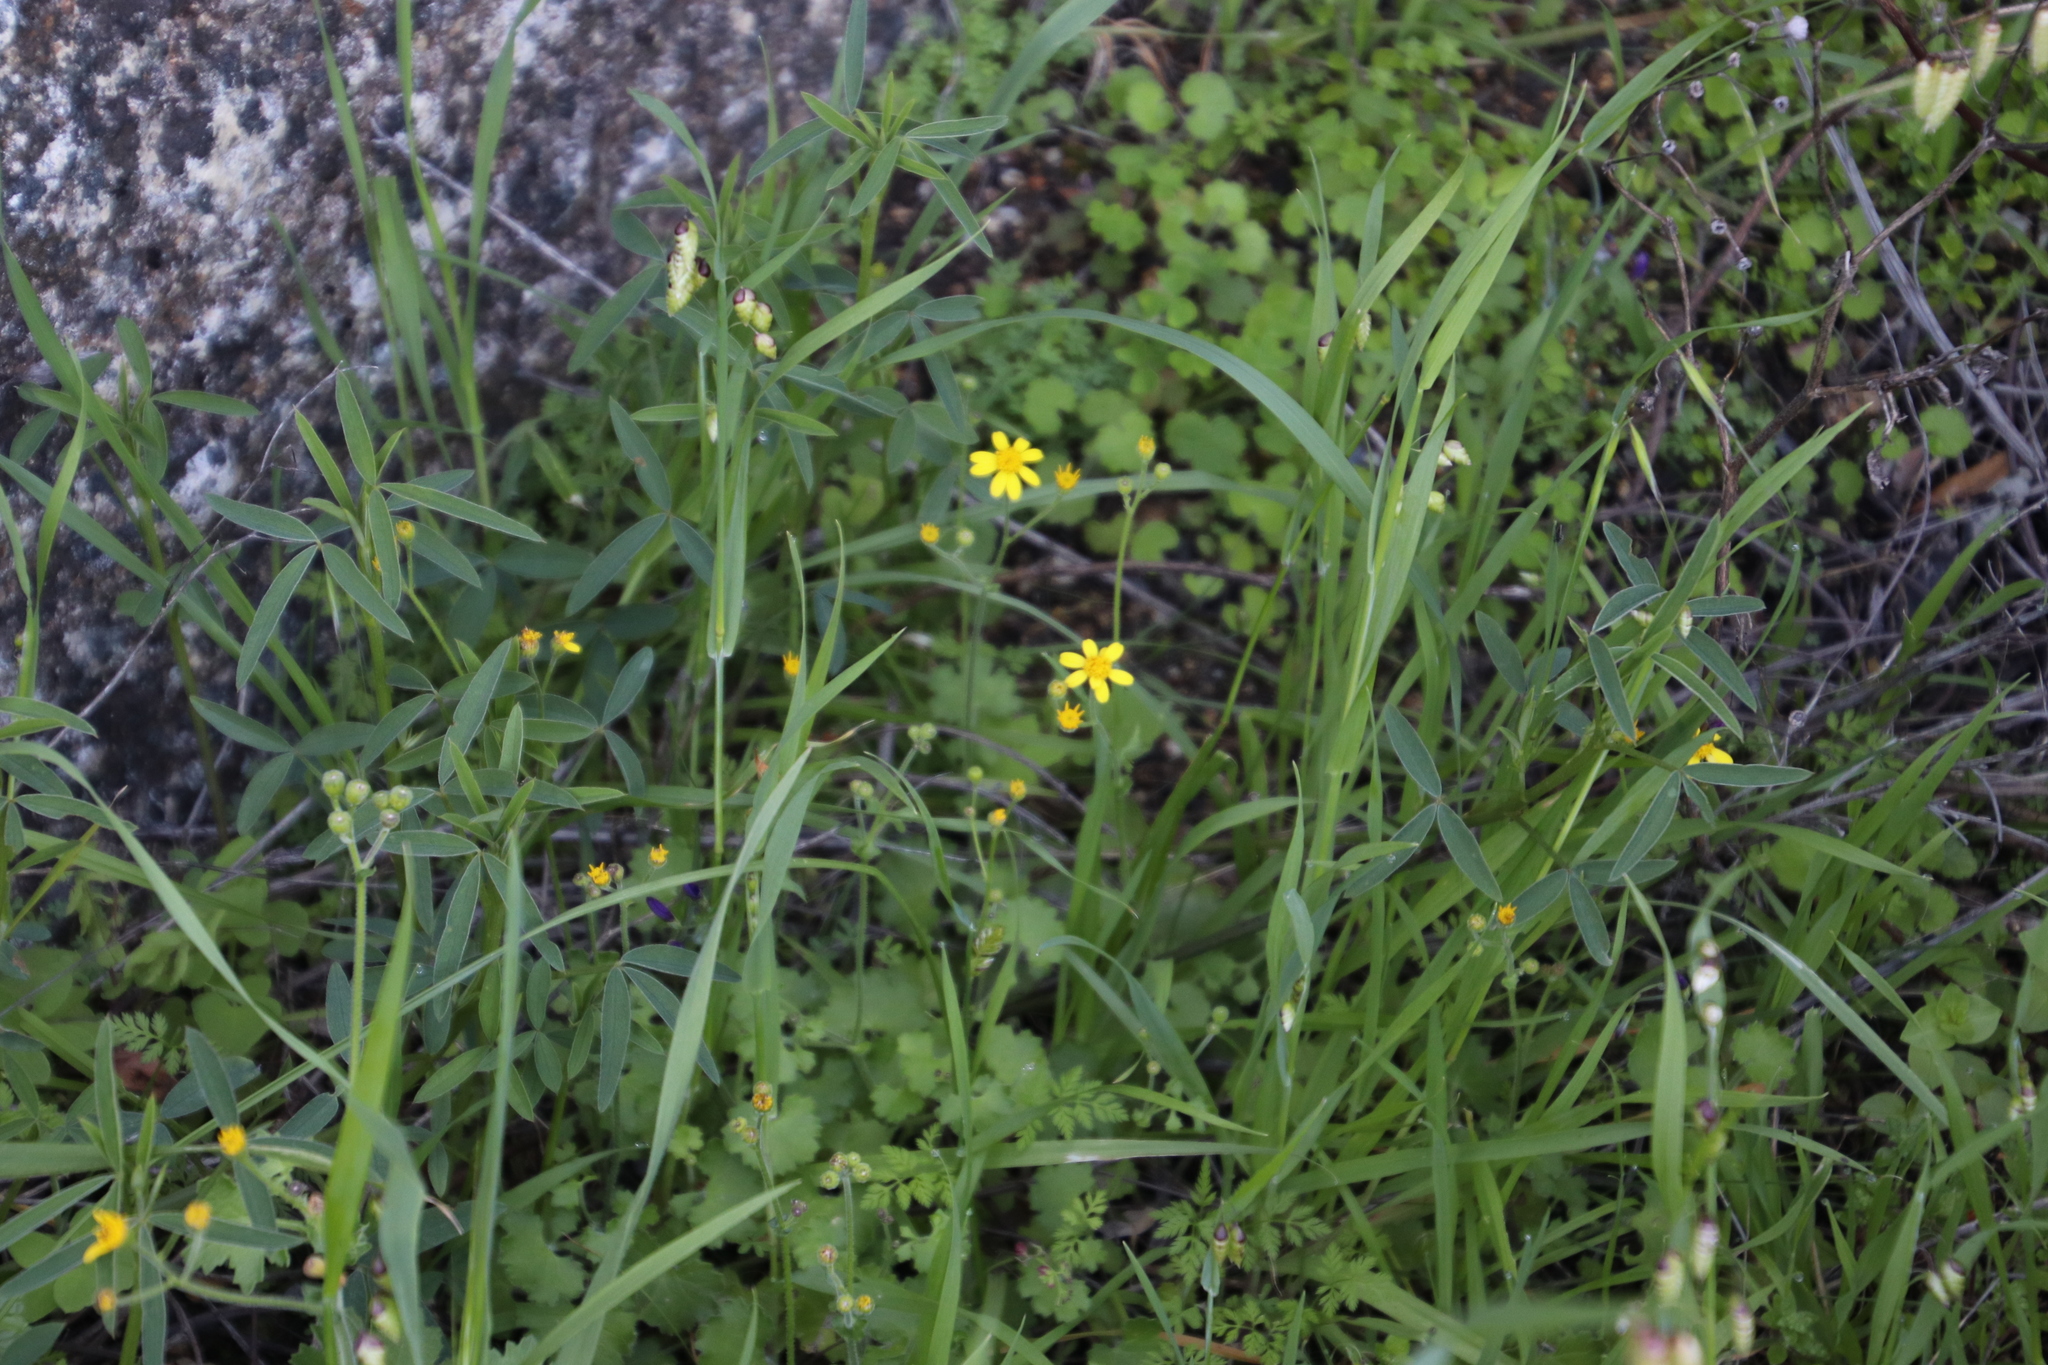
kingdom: Plantae
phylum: Tracheophyta
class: Magnoliopsida
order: Asterales
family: Asteraceae
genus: Cineraria
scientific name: Cineraria geifolia
